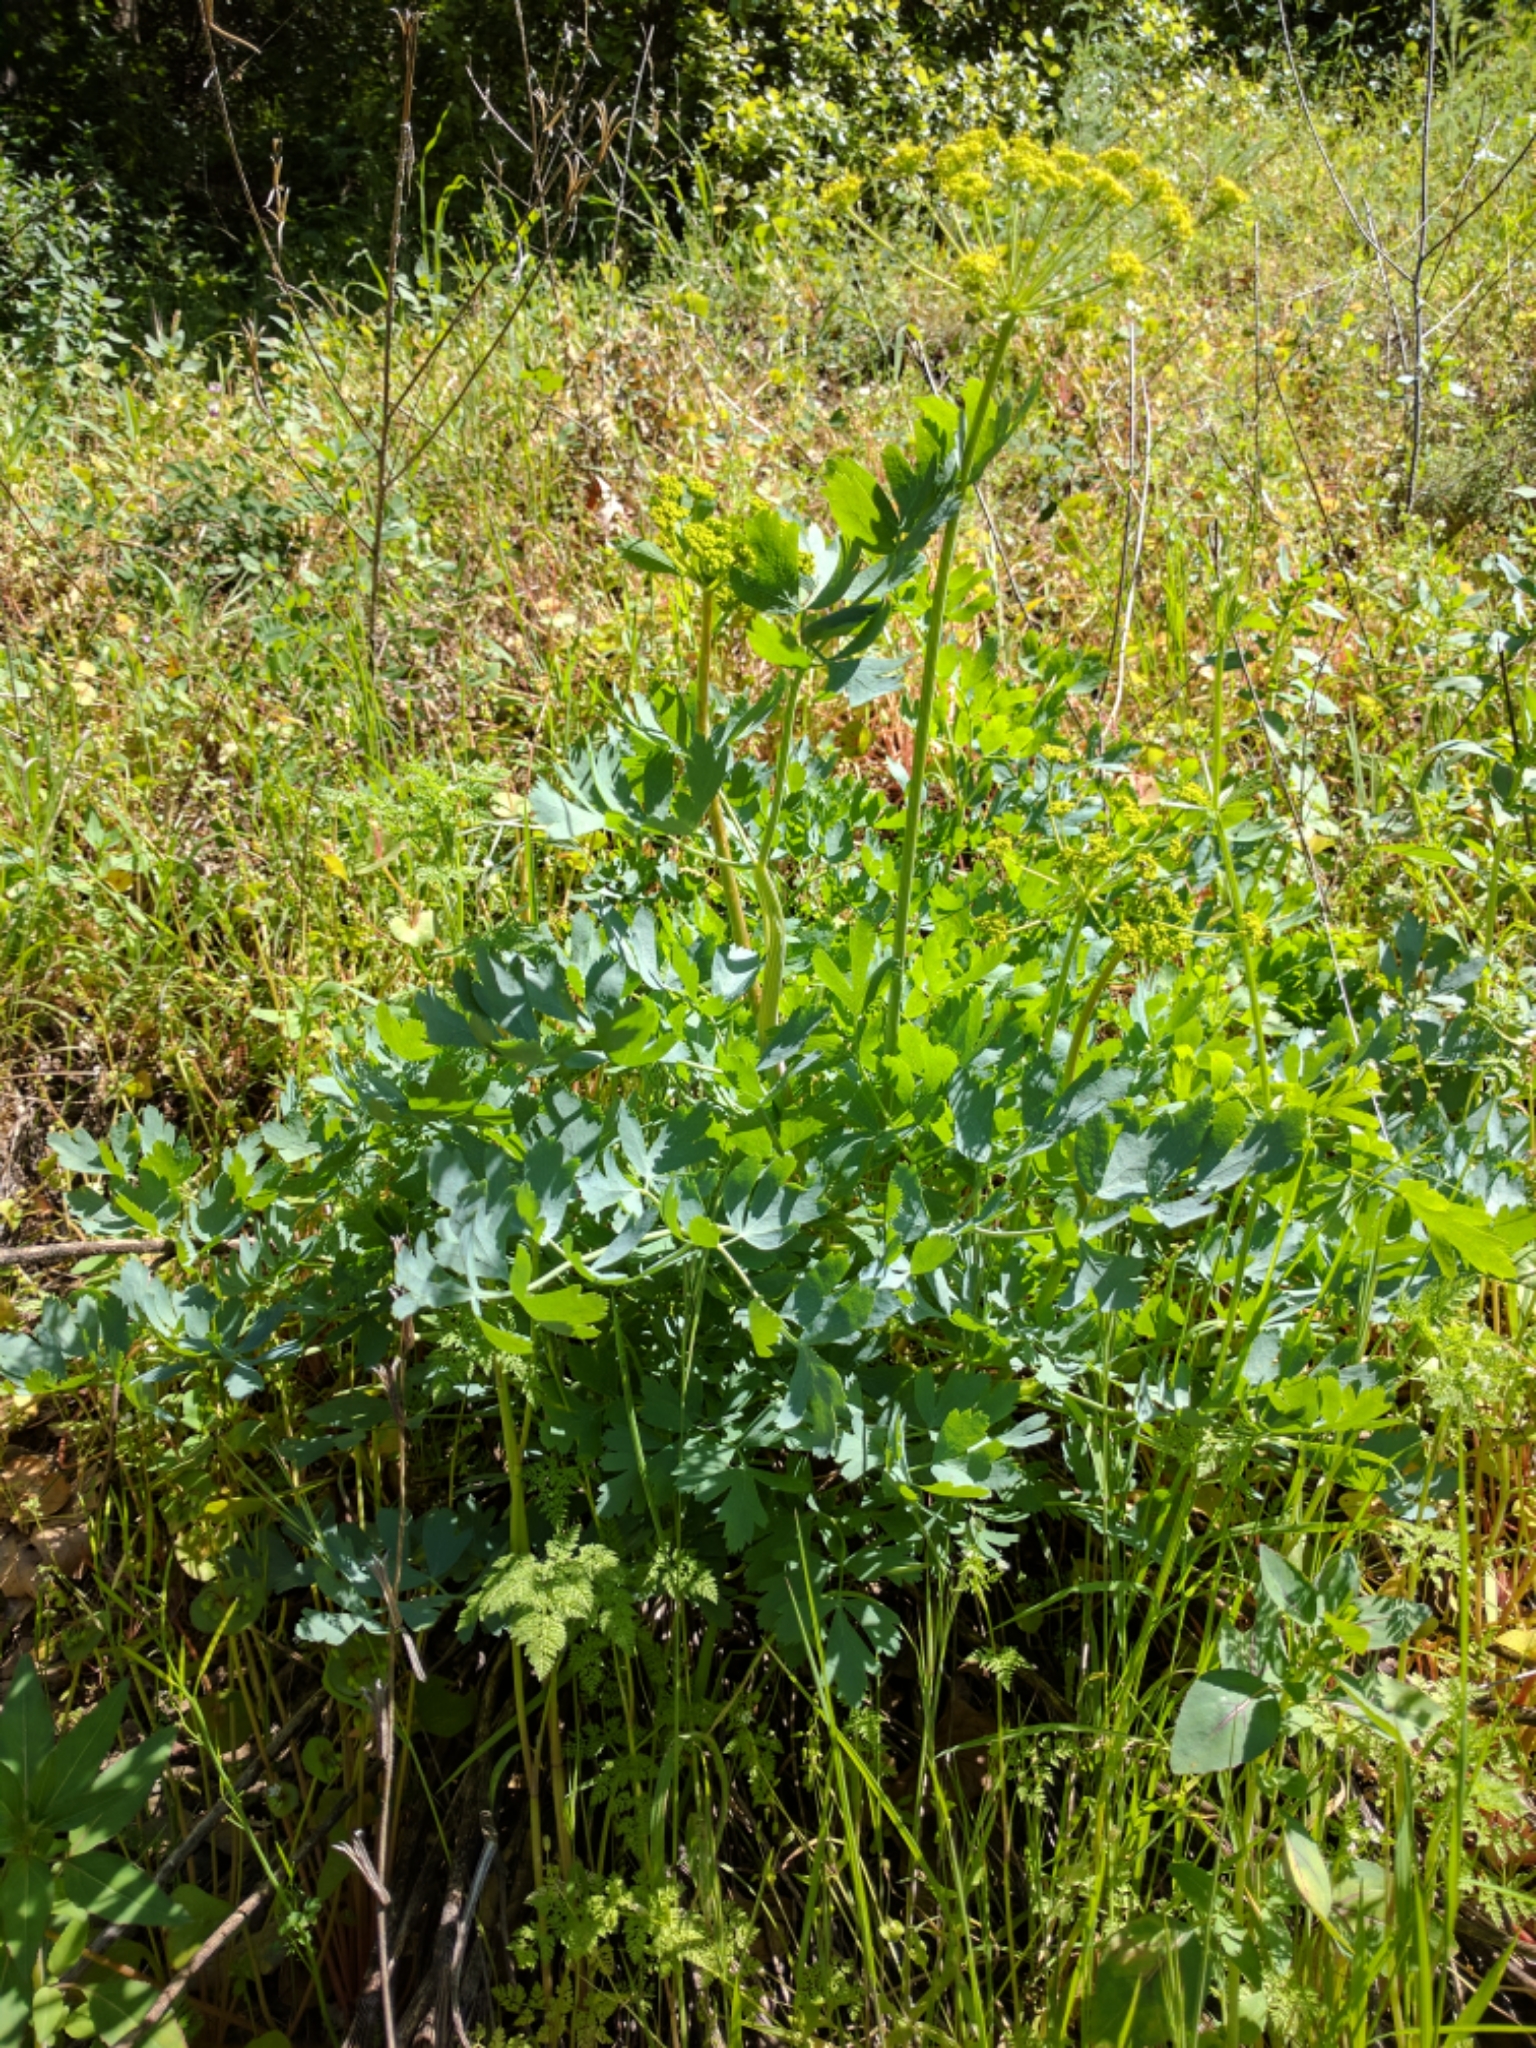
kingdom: Plantae
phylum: Tracheophyta
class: Magnoliopsida
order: Apiales
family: Apiaceae
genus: Lomatium
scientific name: Lomatium californicum
